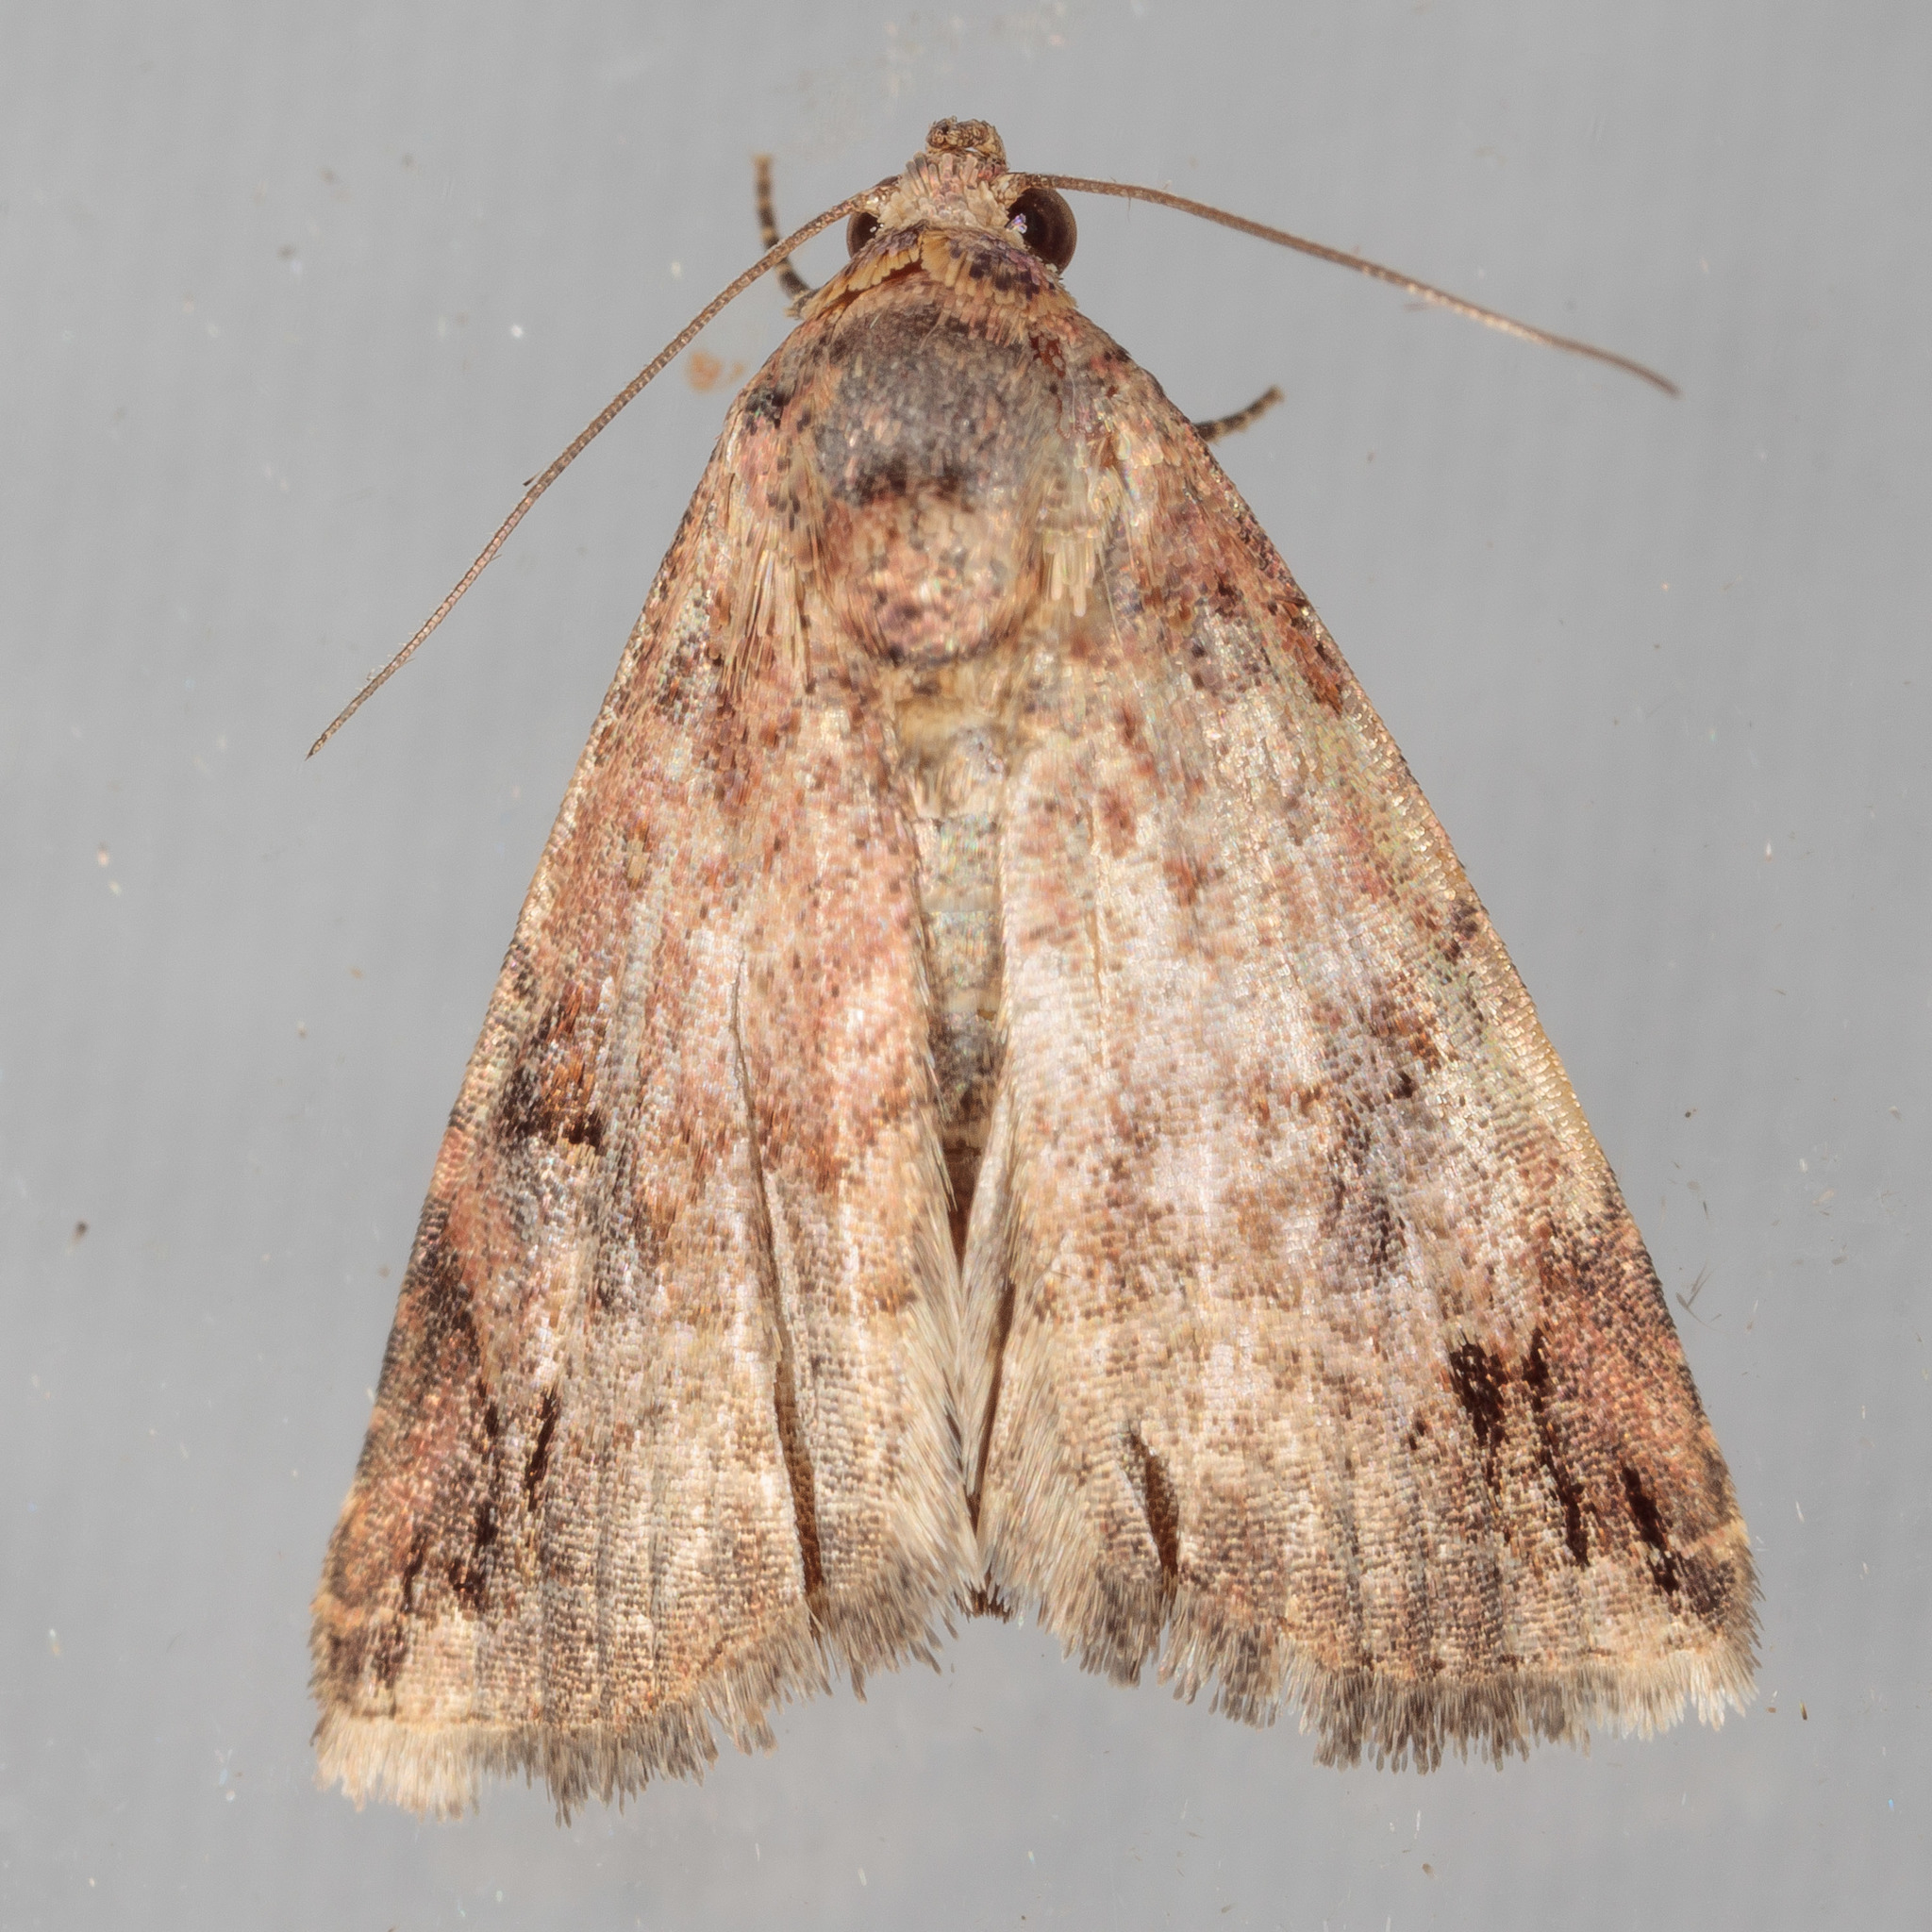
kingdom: Animalia
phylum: Arthropoda
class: Insecta
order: Lepidoptera
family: Noctuidae
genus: Ozarba
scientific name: Ozarba aeria
